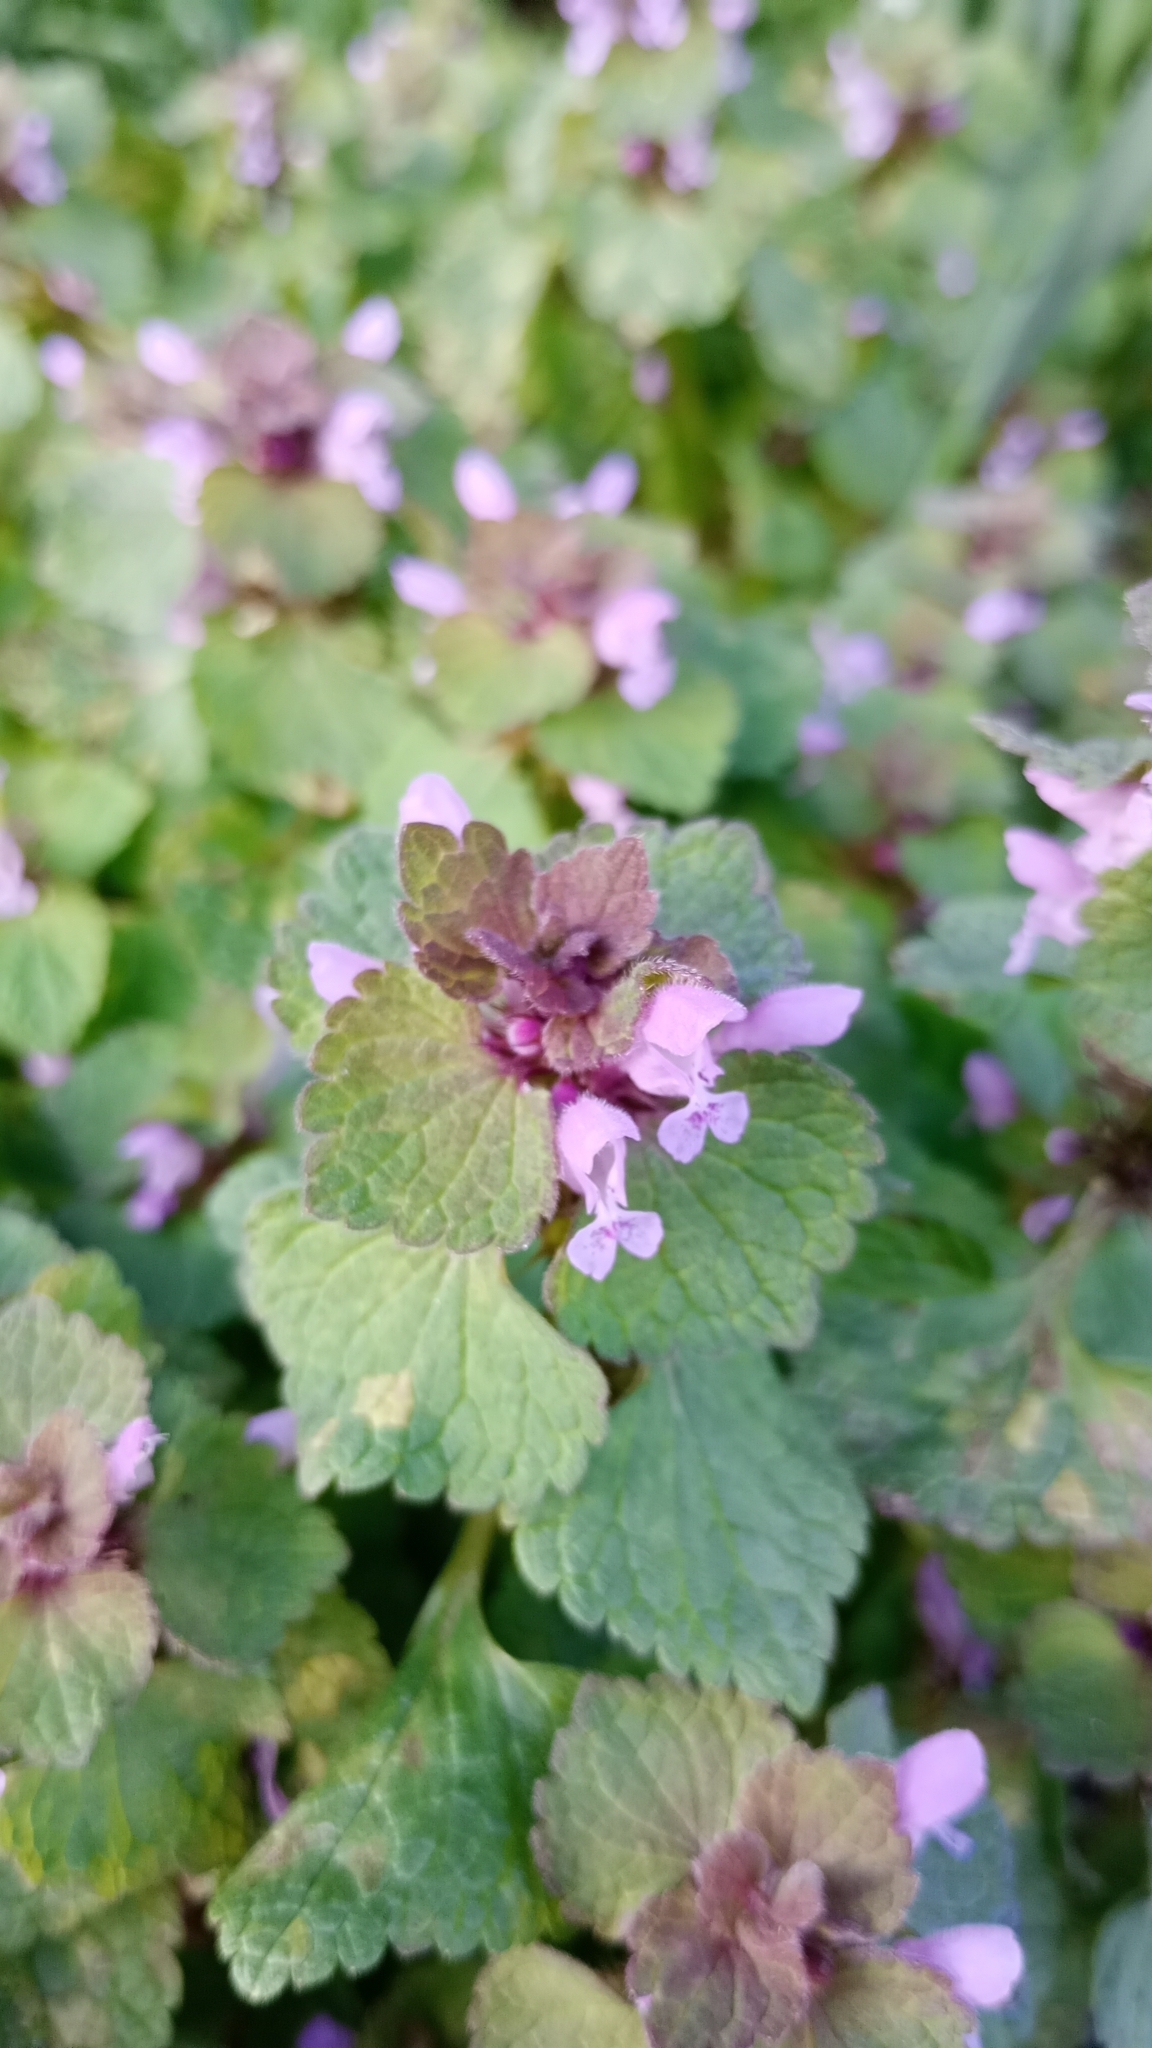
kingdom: Plantae
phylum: Tracheophyta
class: Magnoliopsida
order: Lamiales
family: Lamiaceae
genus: Lamium
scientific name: Lamium purpureum
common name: Red dead-nettle
